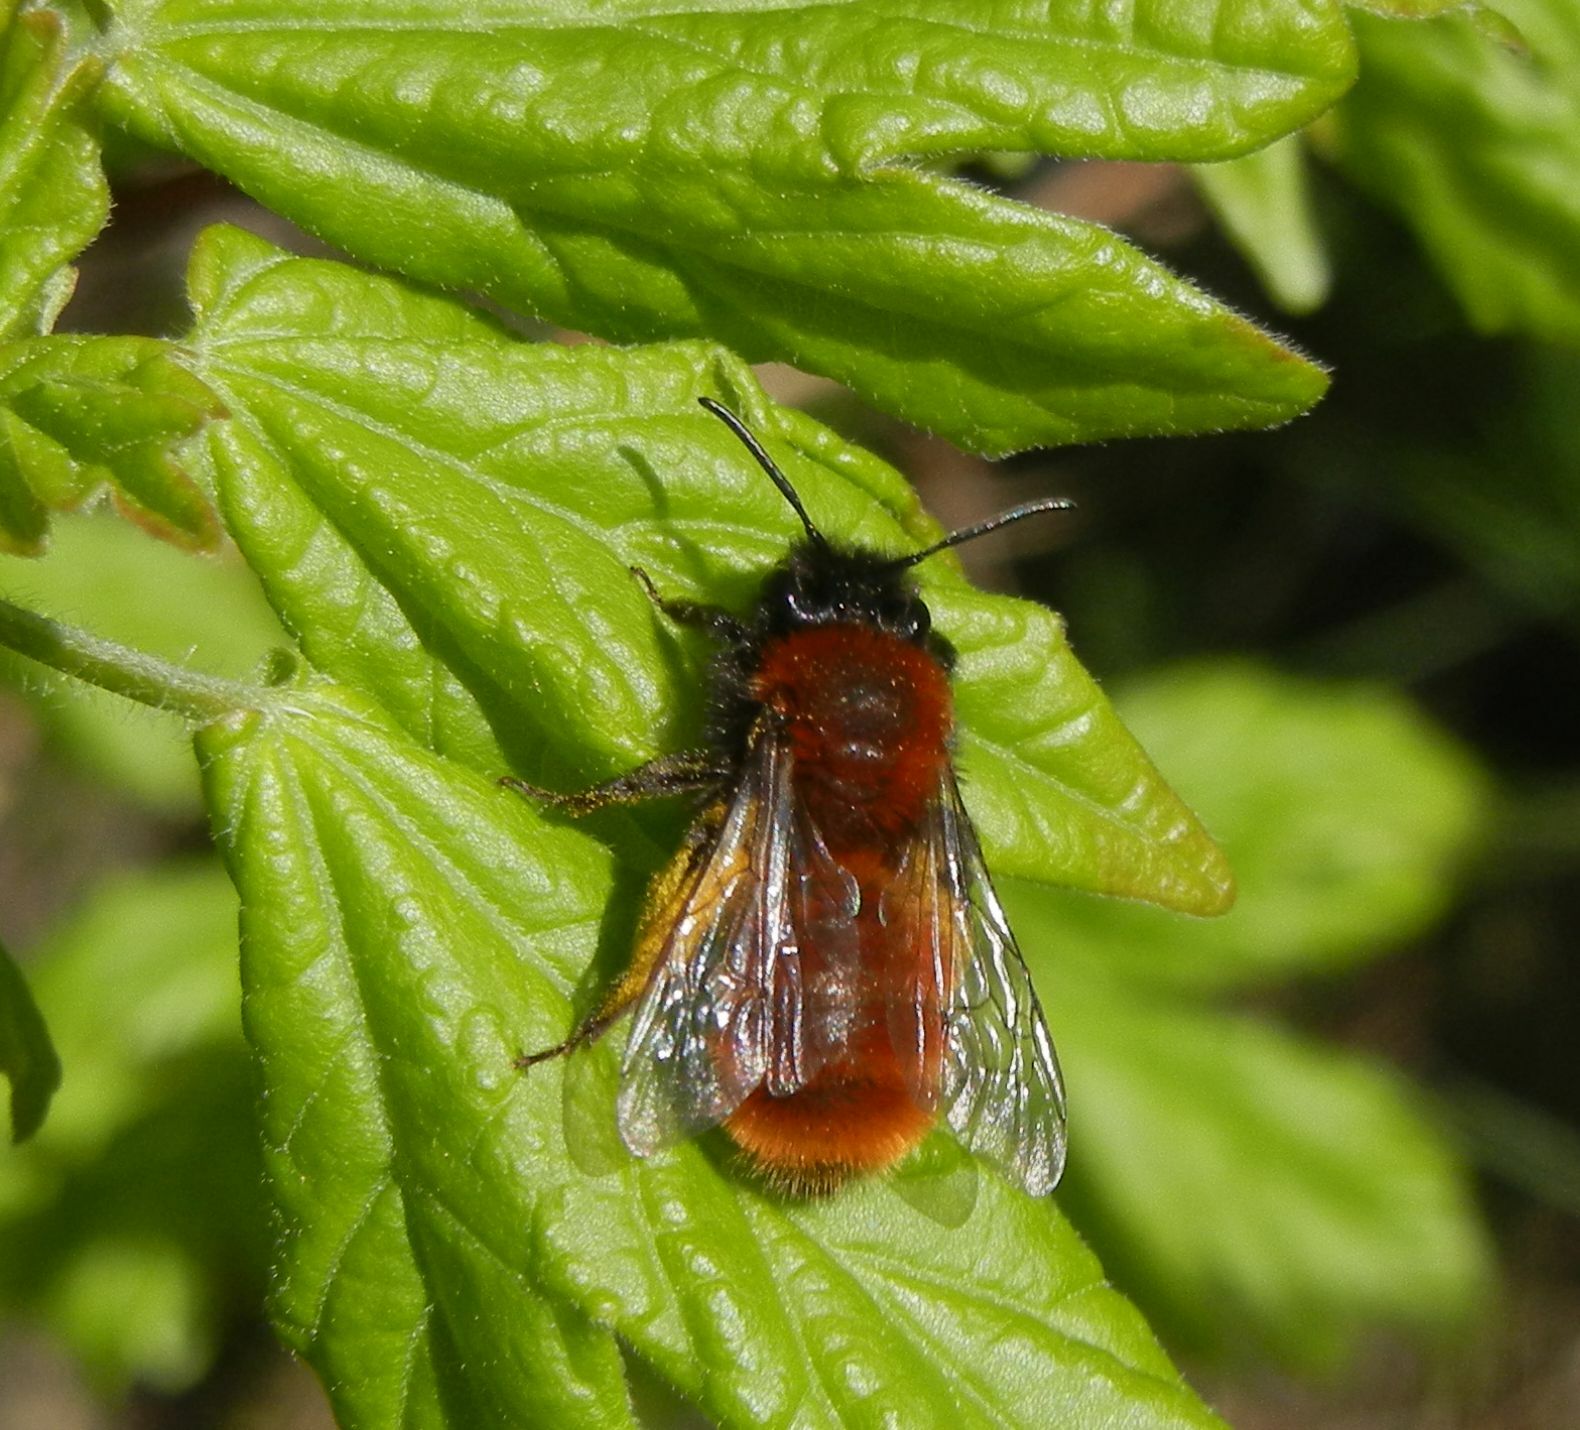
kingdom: Animalia
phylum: Arthropoda
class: Insecta
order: Hymenoptera
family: Andrenidae
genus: Andrena
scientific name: Andrena fulva
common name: Tawny mining bee
